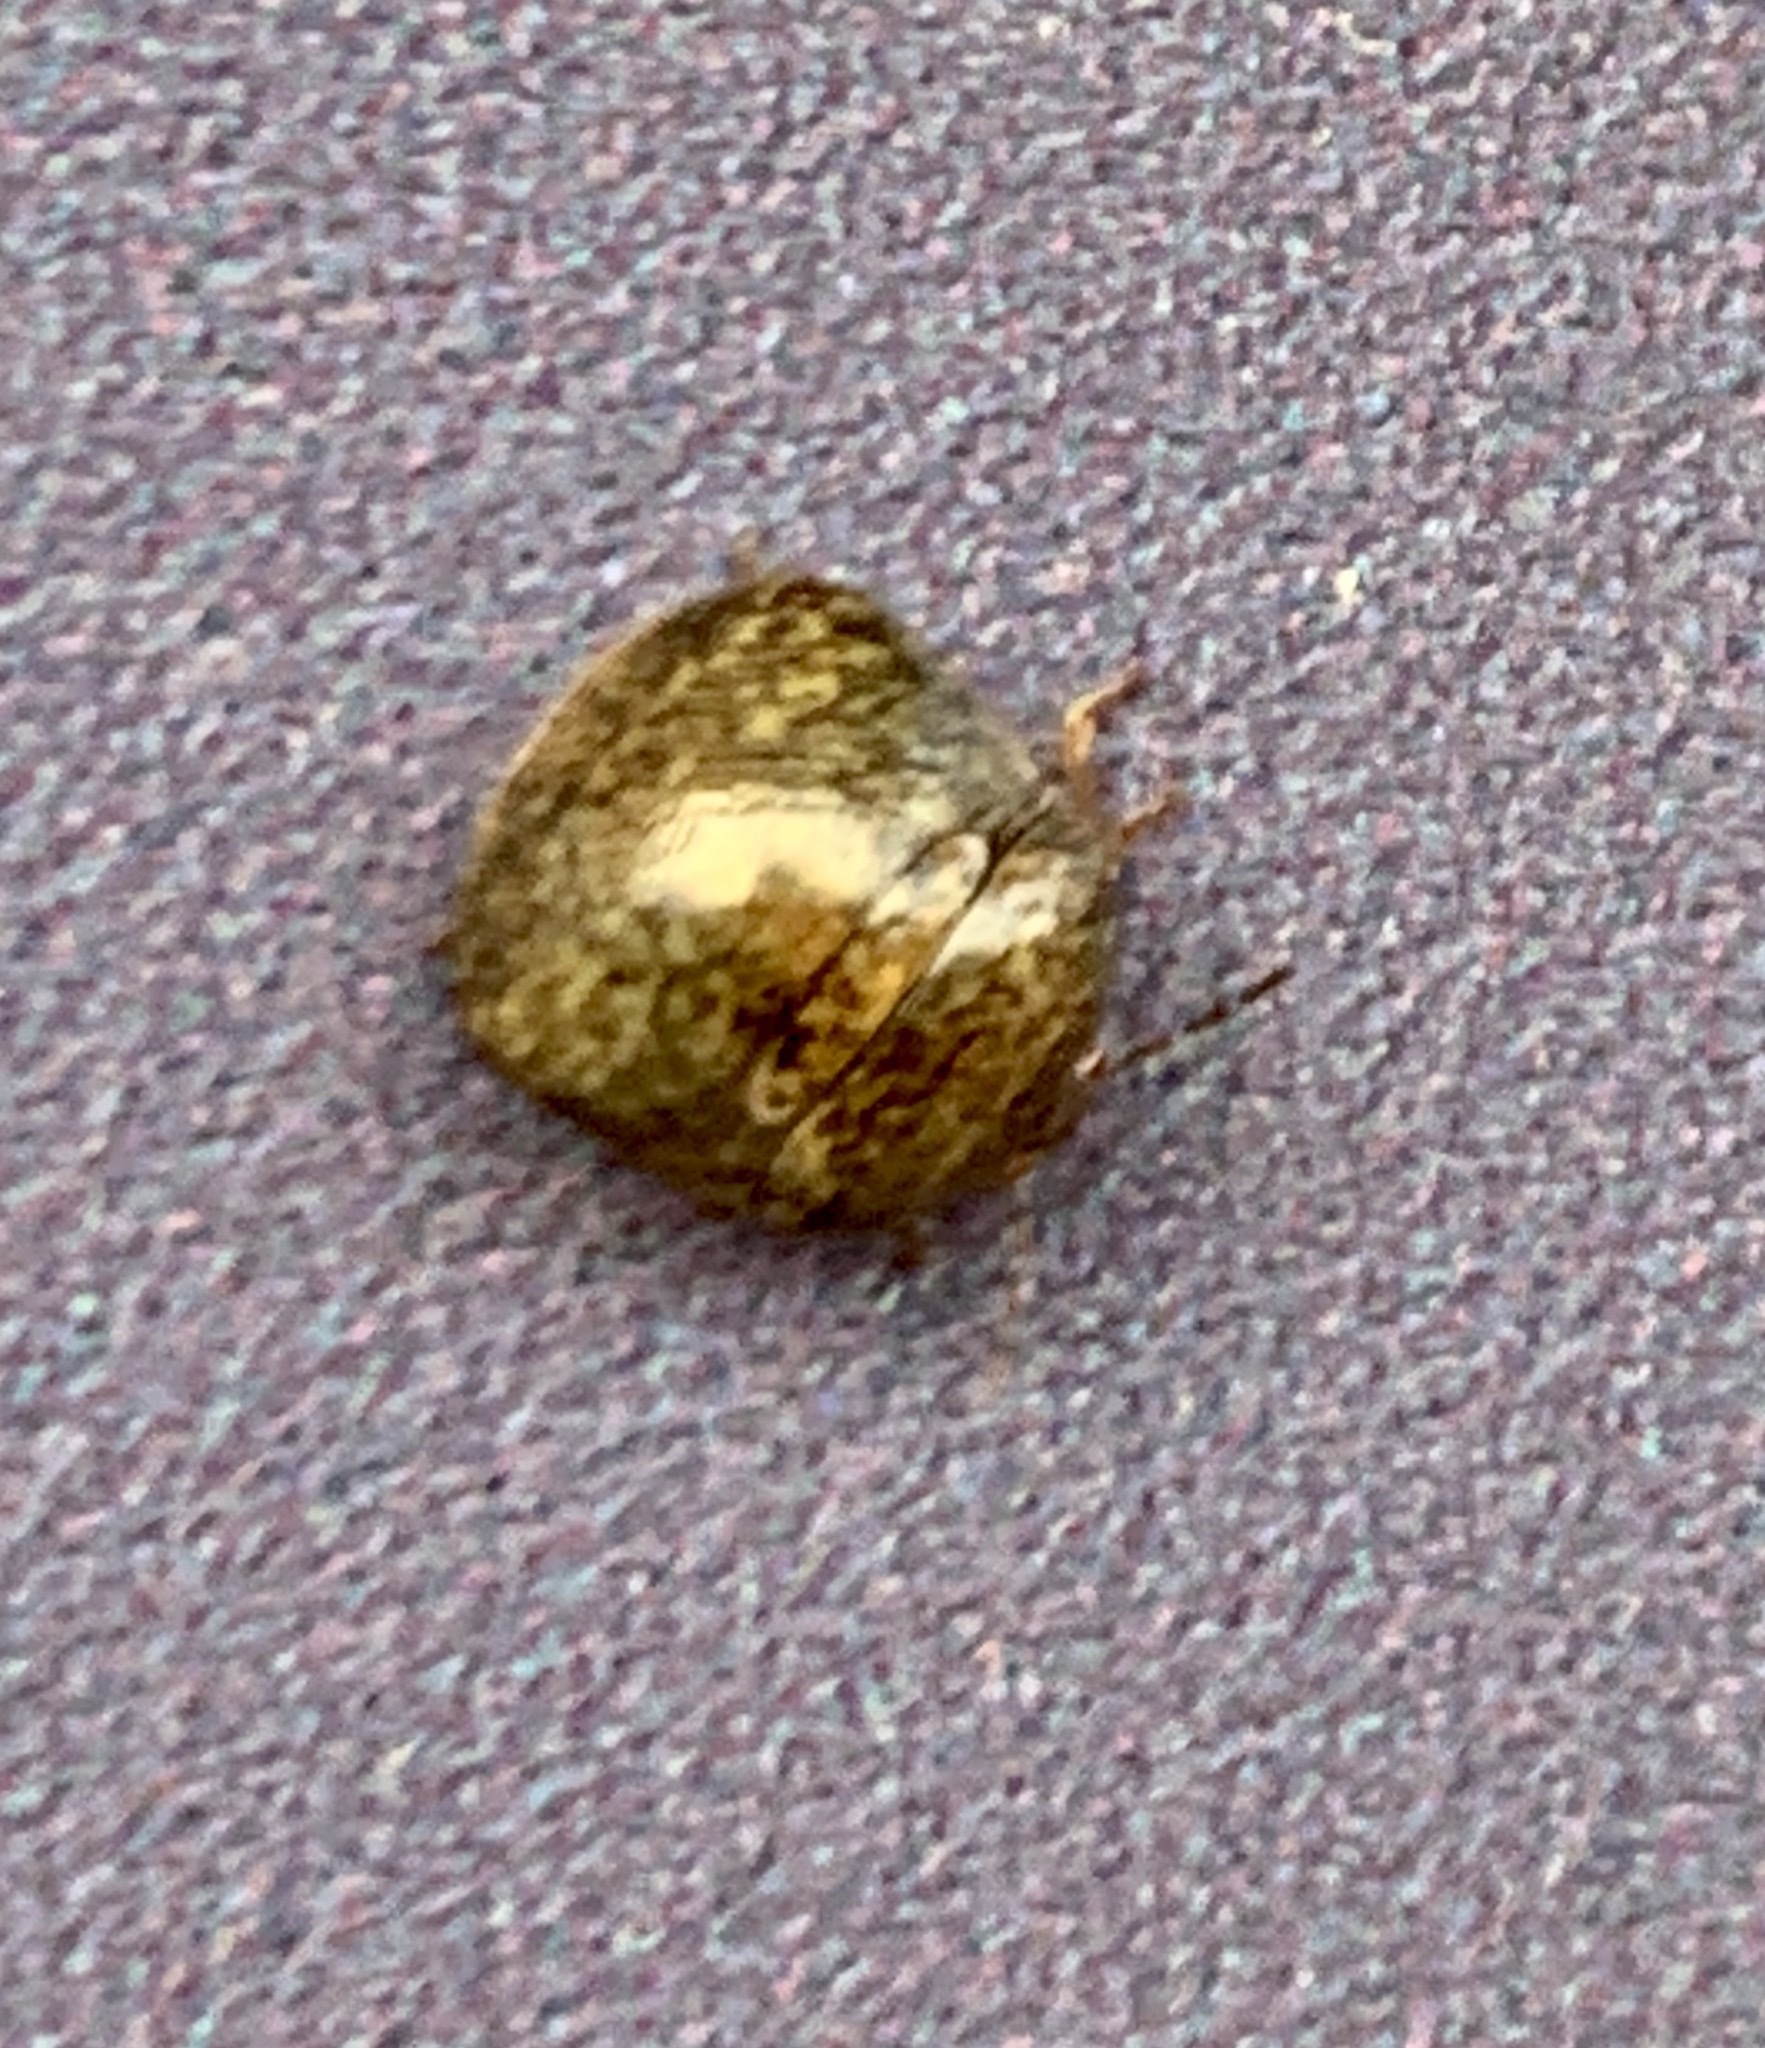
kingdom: Animalia
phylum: Arthropoda
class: Insecta
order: Hemiptera
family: Plataspidae
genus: Megacopta
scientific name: Megacopta cribraria
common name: Bean plataspid
